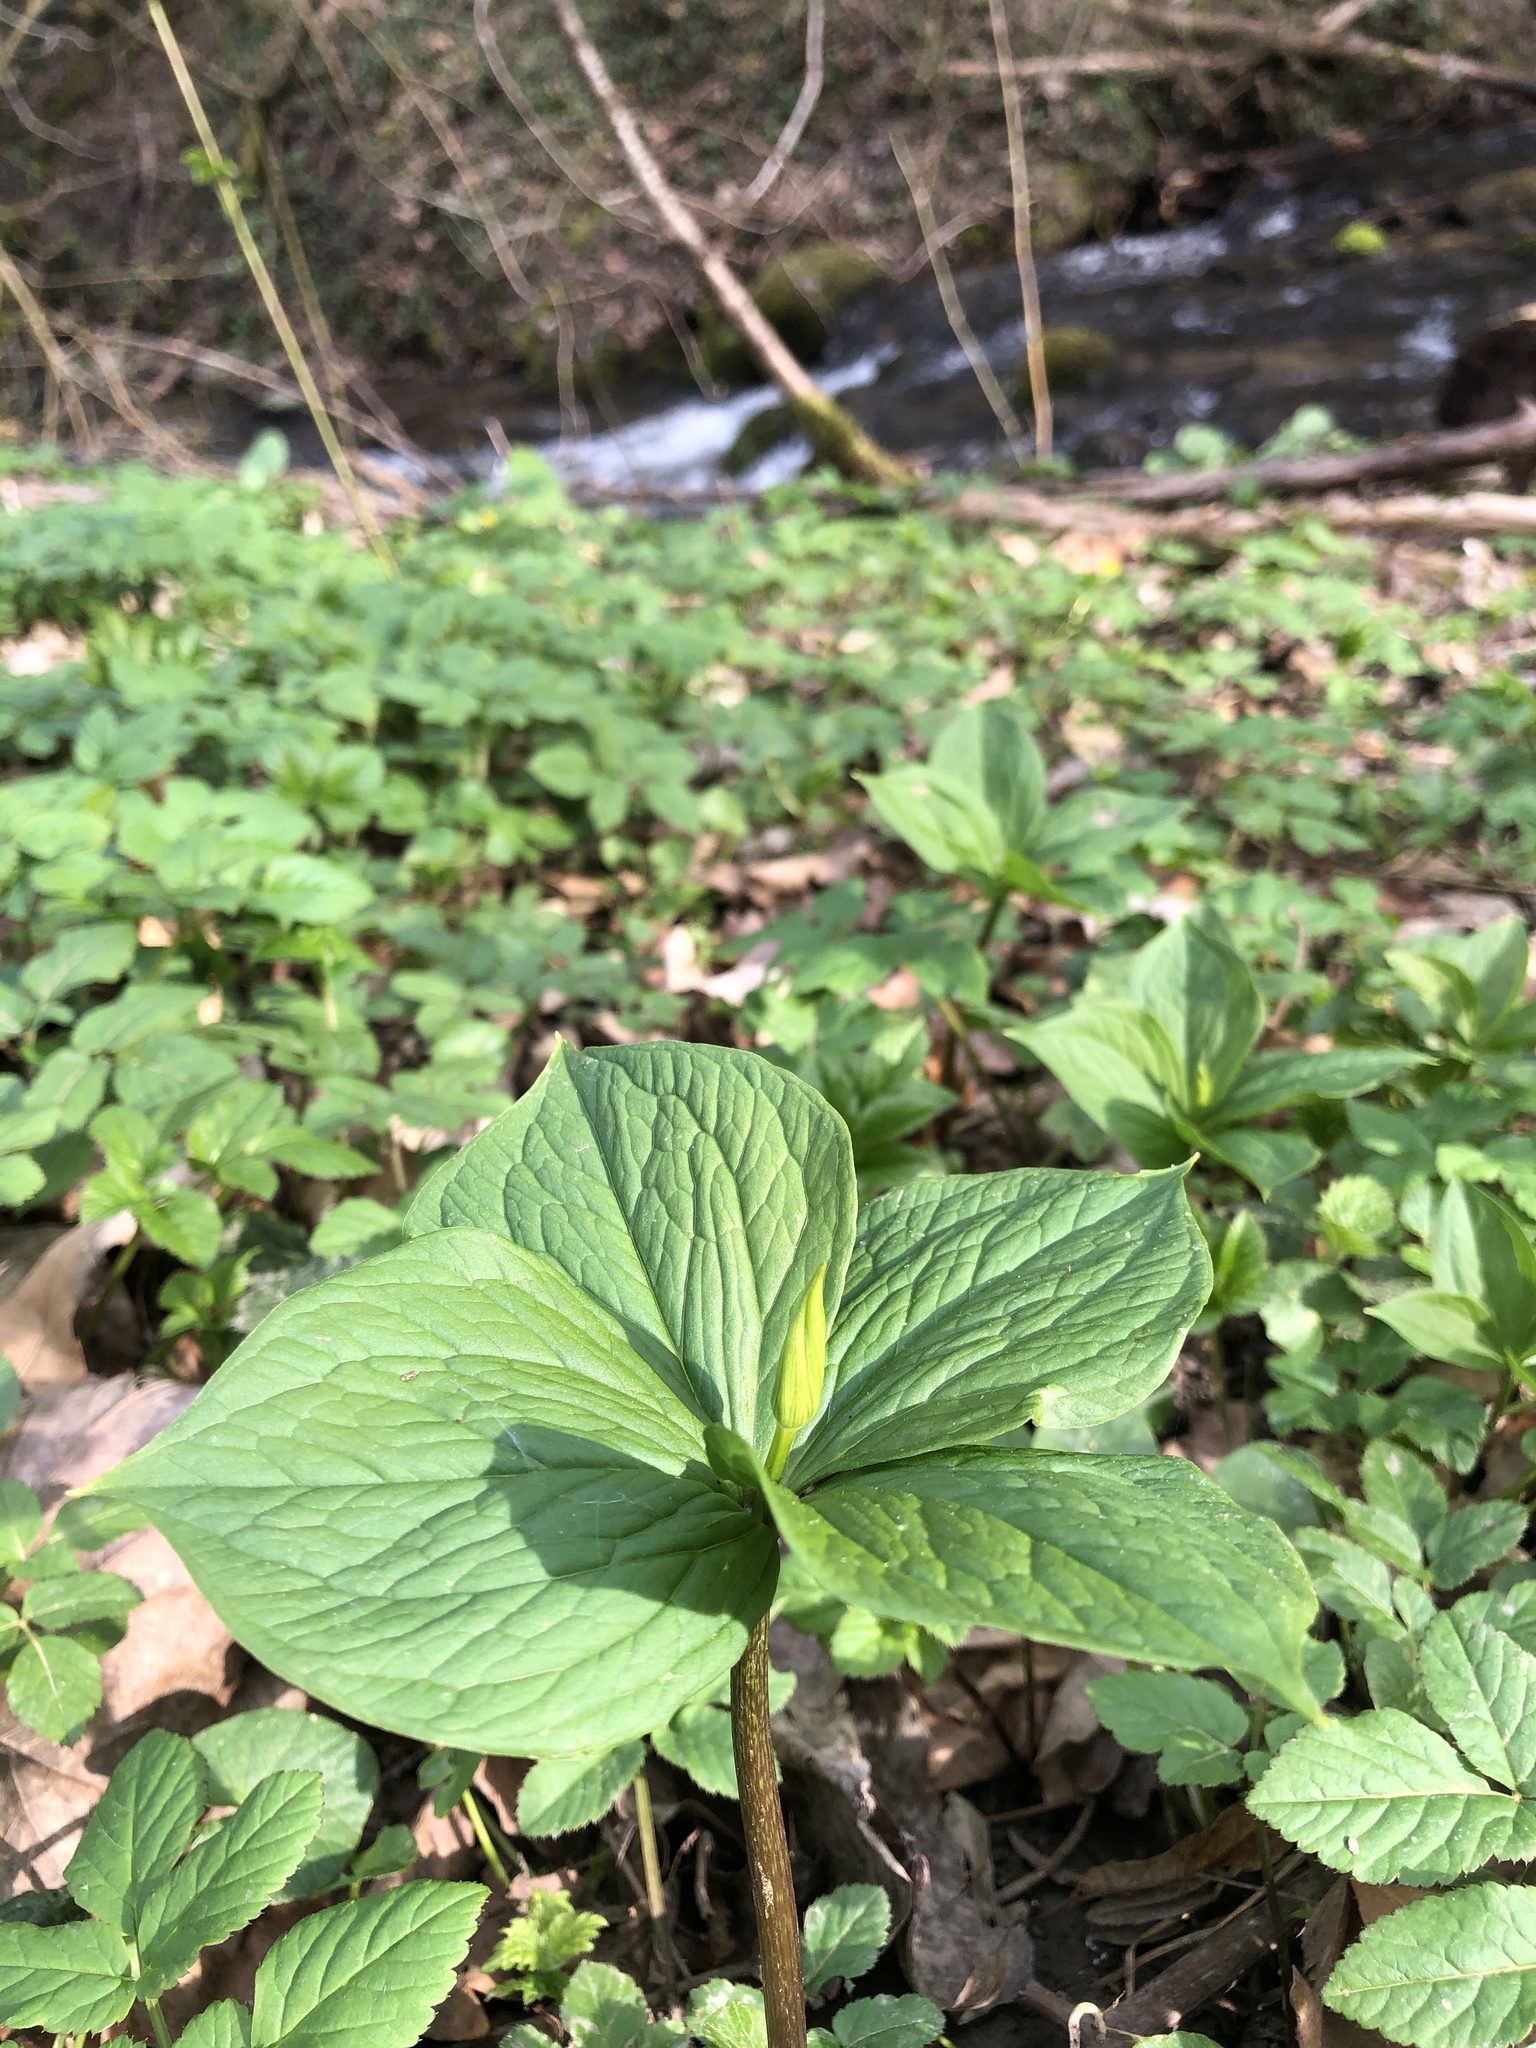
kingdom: Plantae
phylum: Tracheophyta
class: Liliopsida
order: Liliales
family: Melanthiaceae
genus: Paris
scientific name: Paris quadrifolia
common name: Herb-paris
